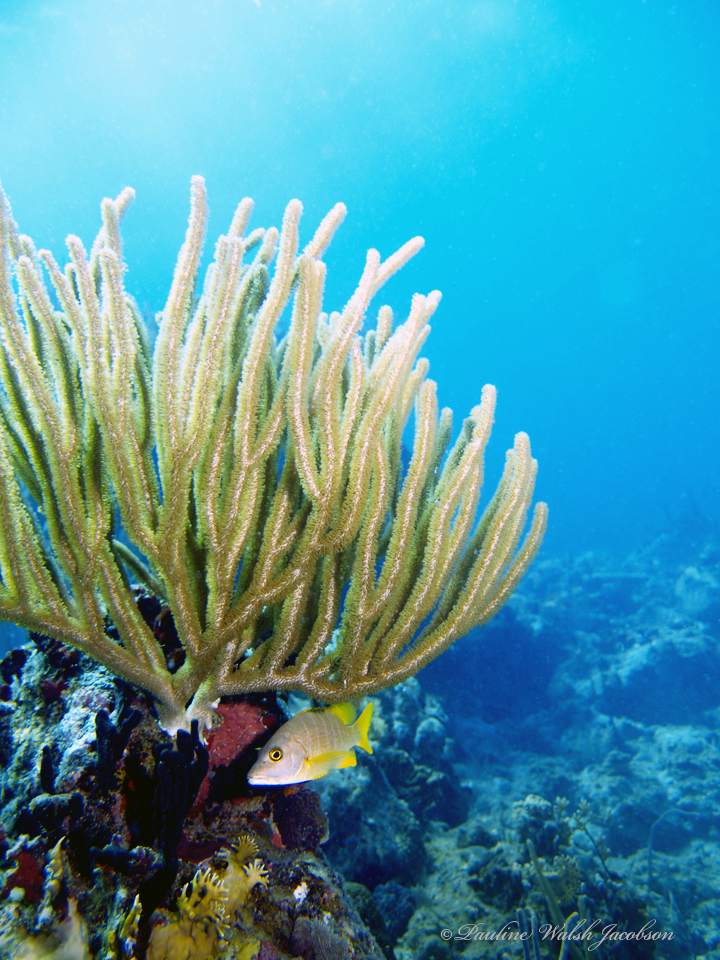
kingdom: Animalia
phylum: Chordata
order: Perciformes
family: Lutjanidae
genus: Lutjanus
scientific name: Lutjanus apodus
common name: Schoolmaster
